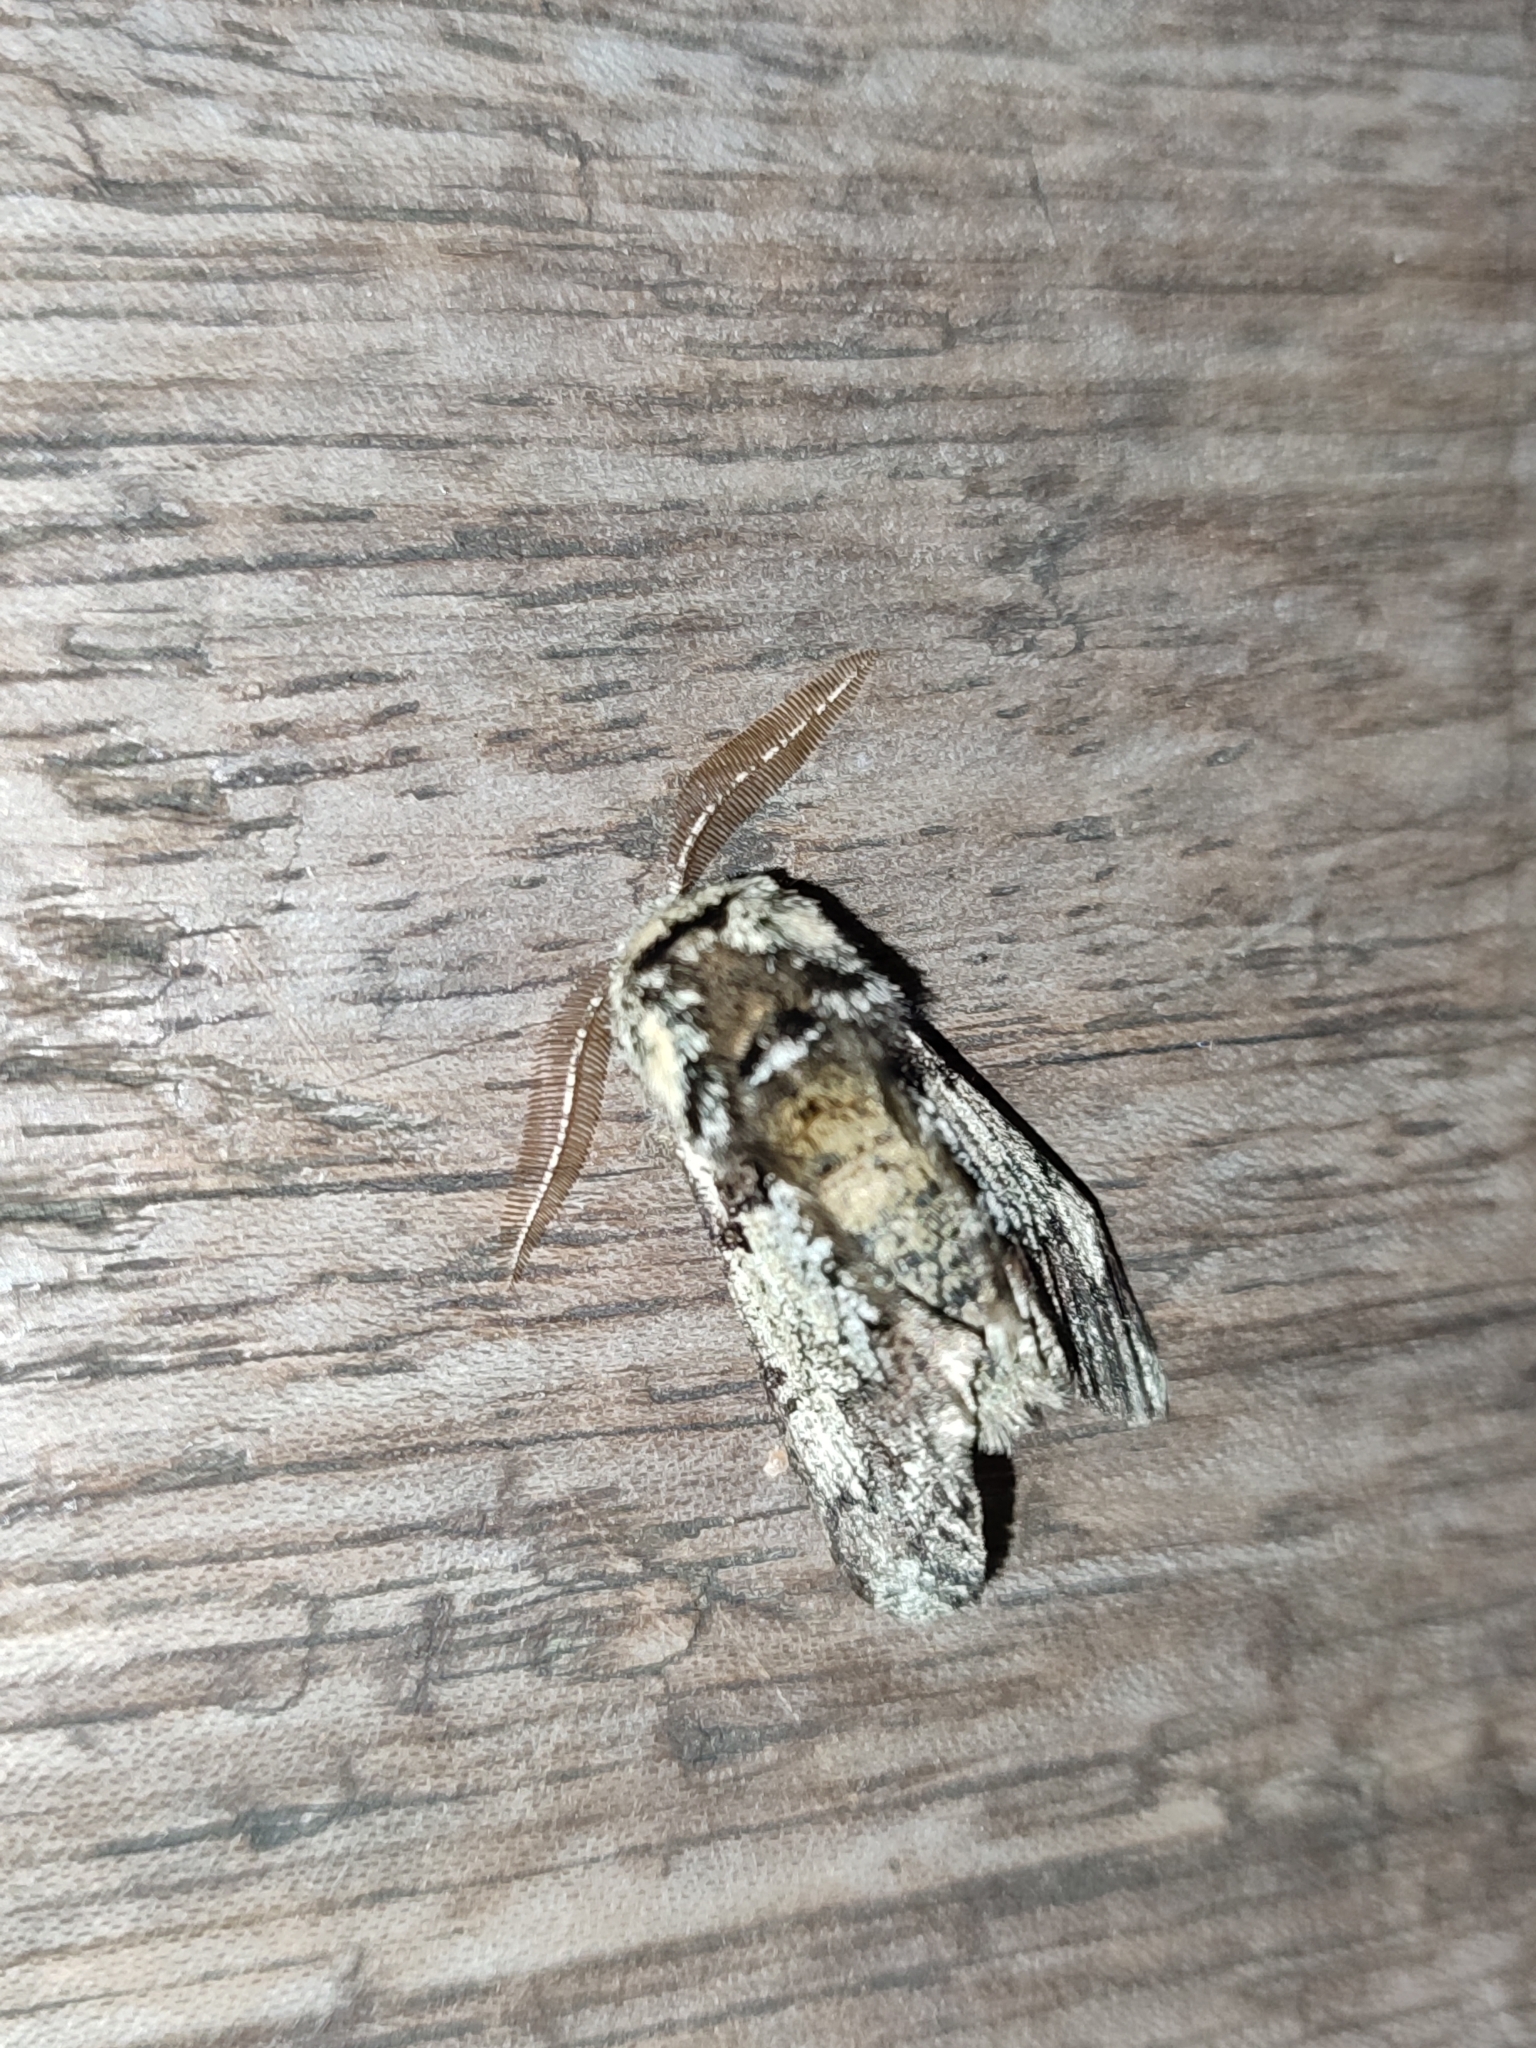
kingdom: Animalia
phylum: Arthropoda
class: Insecta
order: Lepidoptera
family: Geometridae
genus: Biston
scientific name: Biston strataria
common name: Oak beauty
